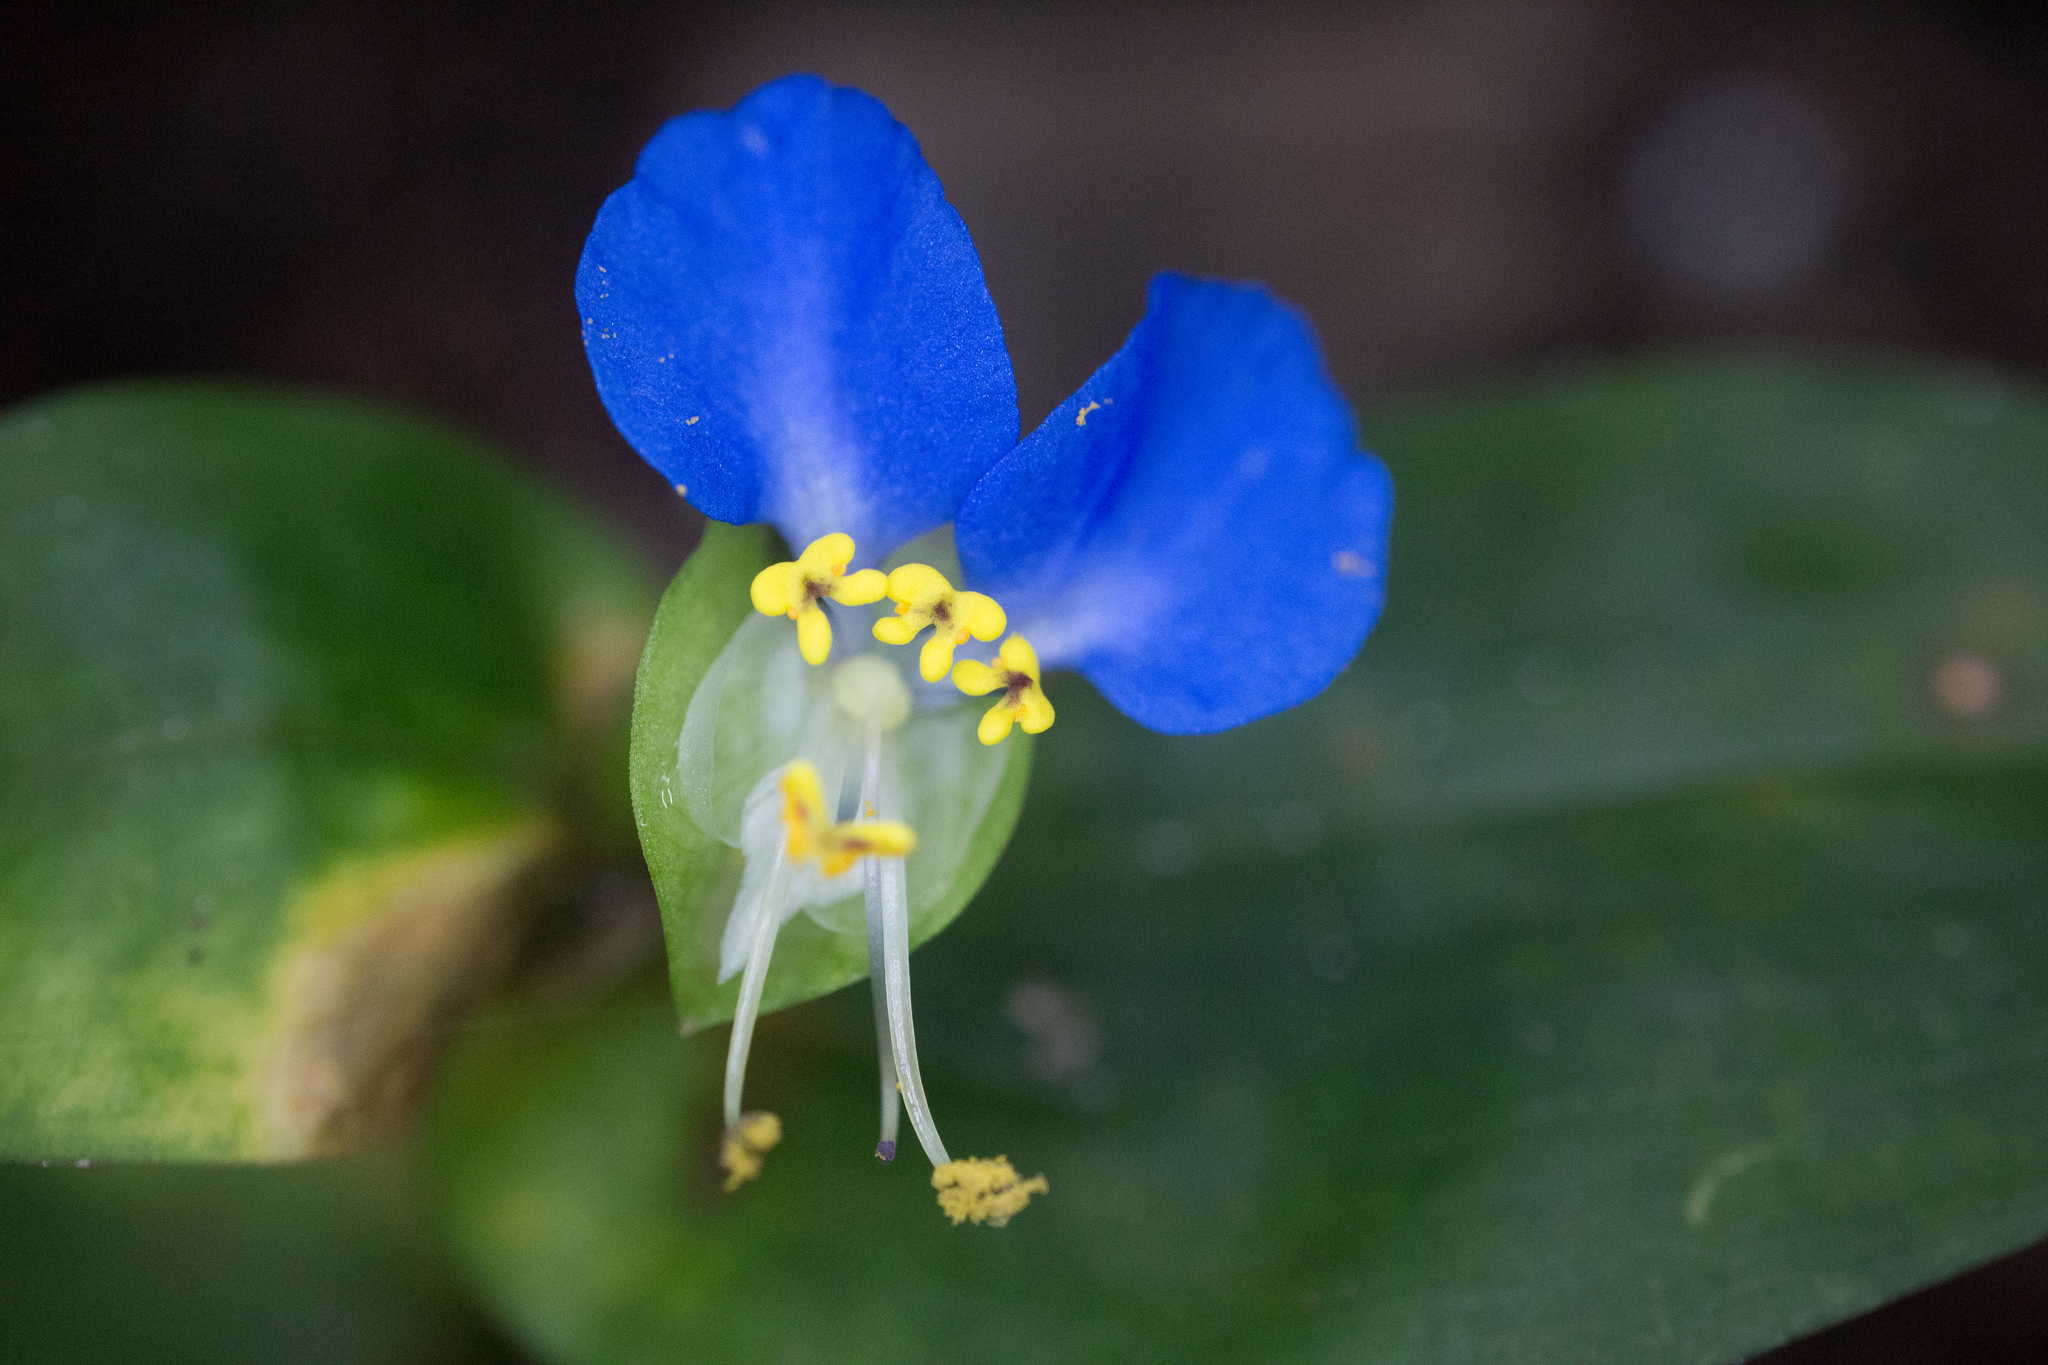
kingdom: Plantae
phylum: Tracheophyta
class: Liliopsida
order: Commelinales
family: Commelinaceae
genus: Commelina
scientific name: Commelina communis
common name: Asiatic dayflower
